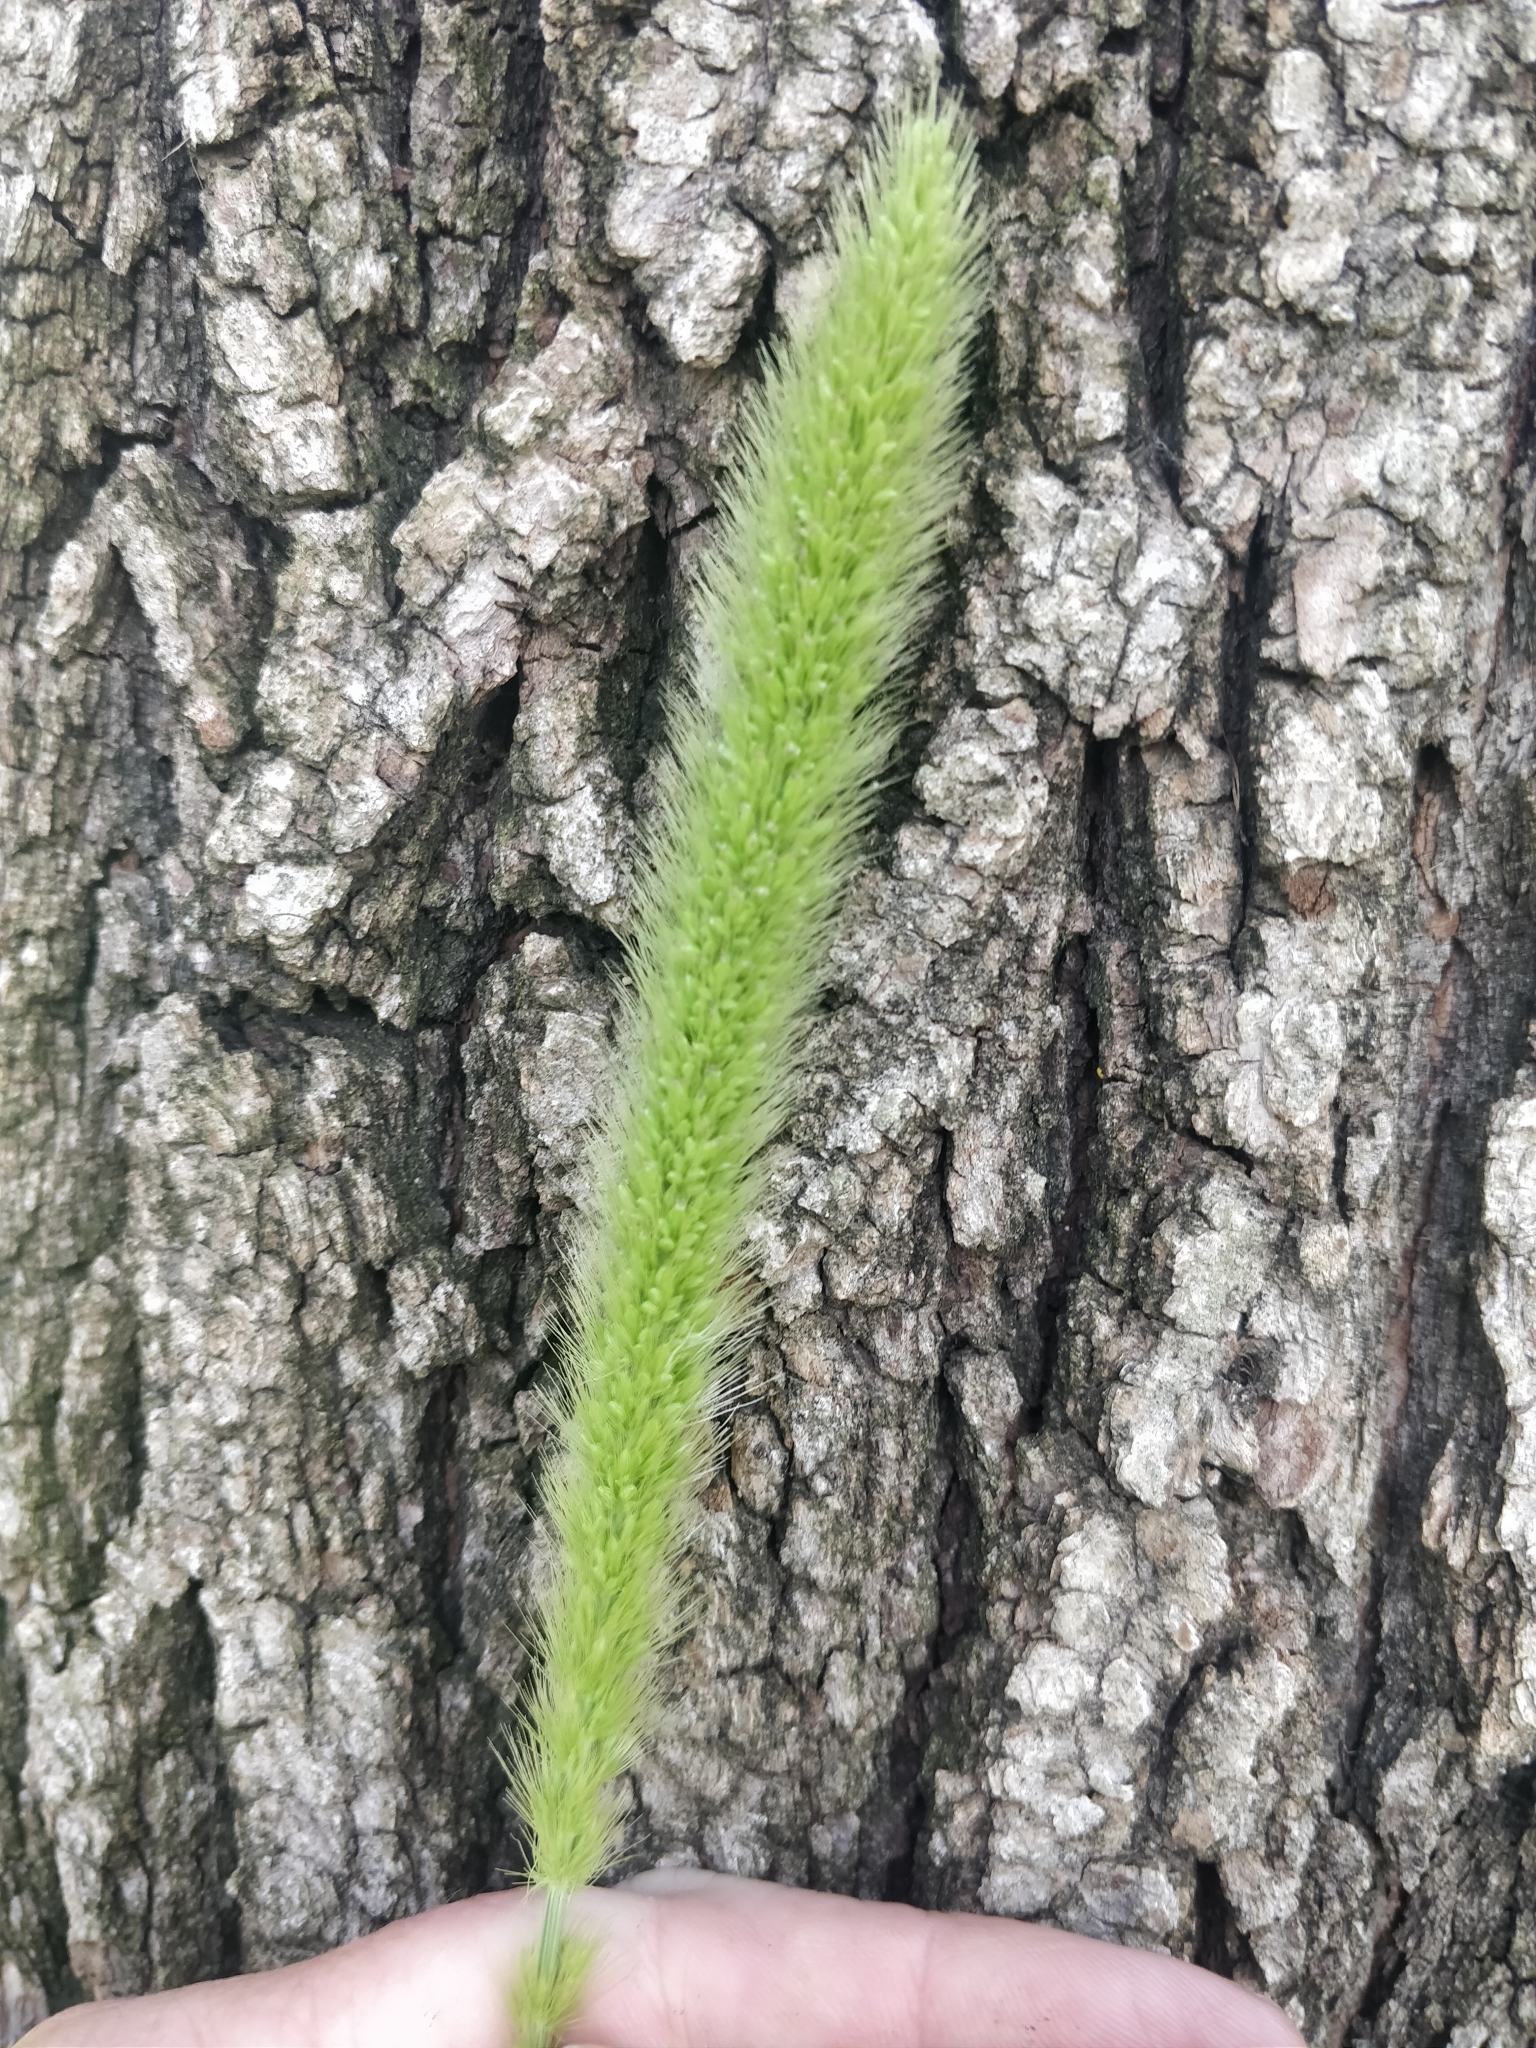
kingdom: Plantae
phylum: Tracheophyta
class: Liliopsida
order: Poales
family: Poaceae
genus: Setaria
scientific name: Setaria viridis
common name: Green bristlegrass
